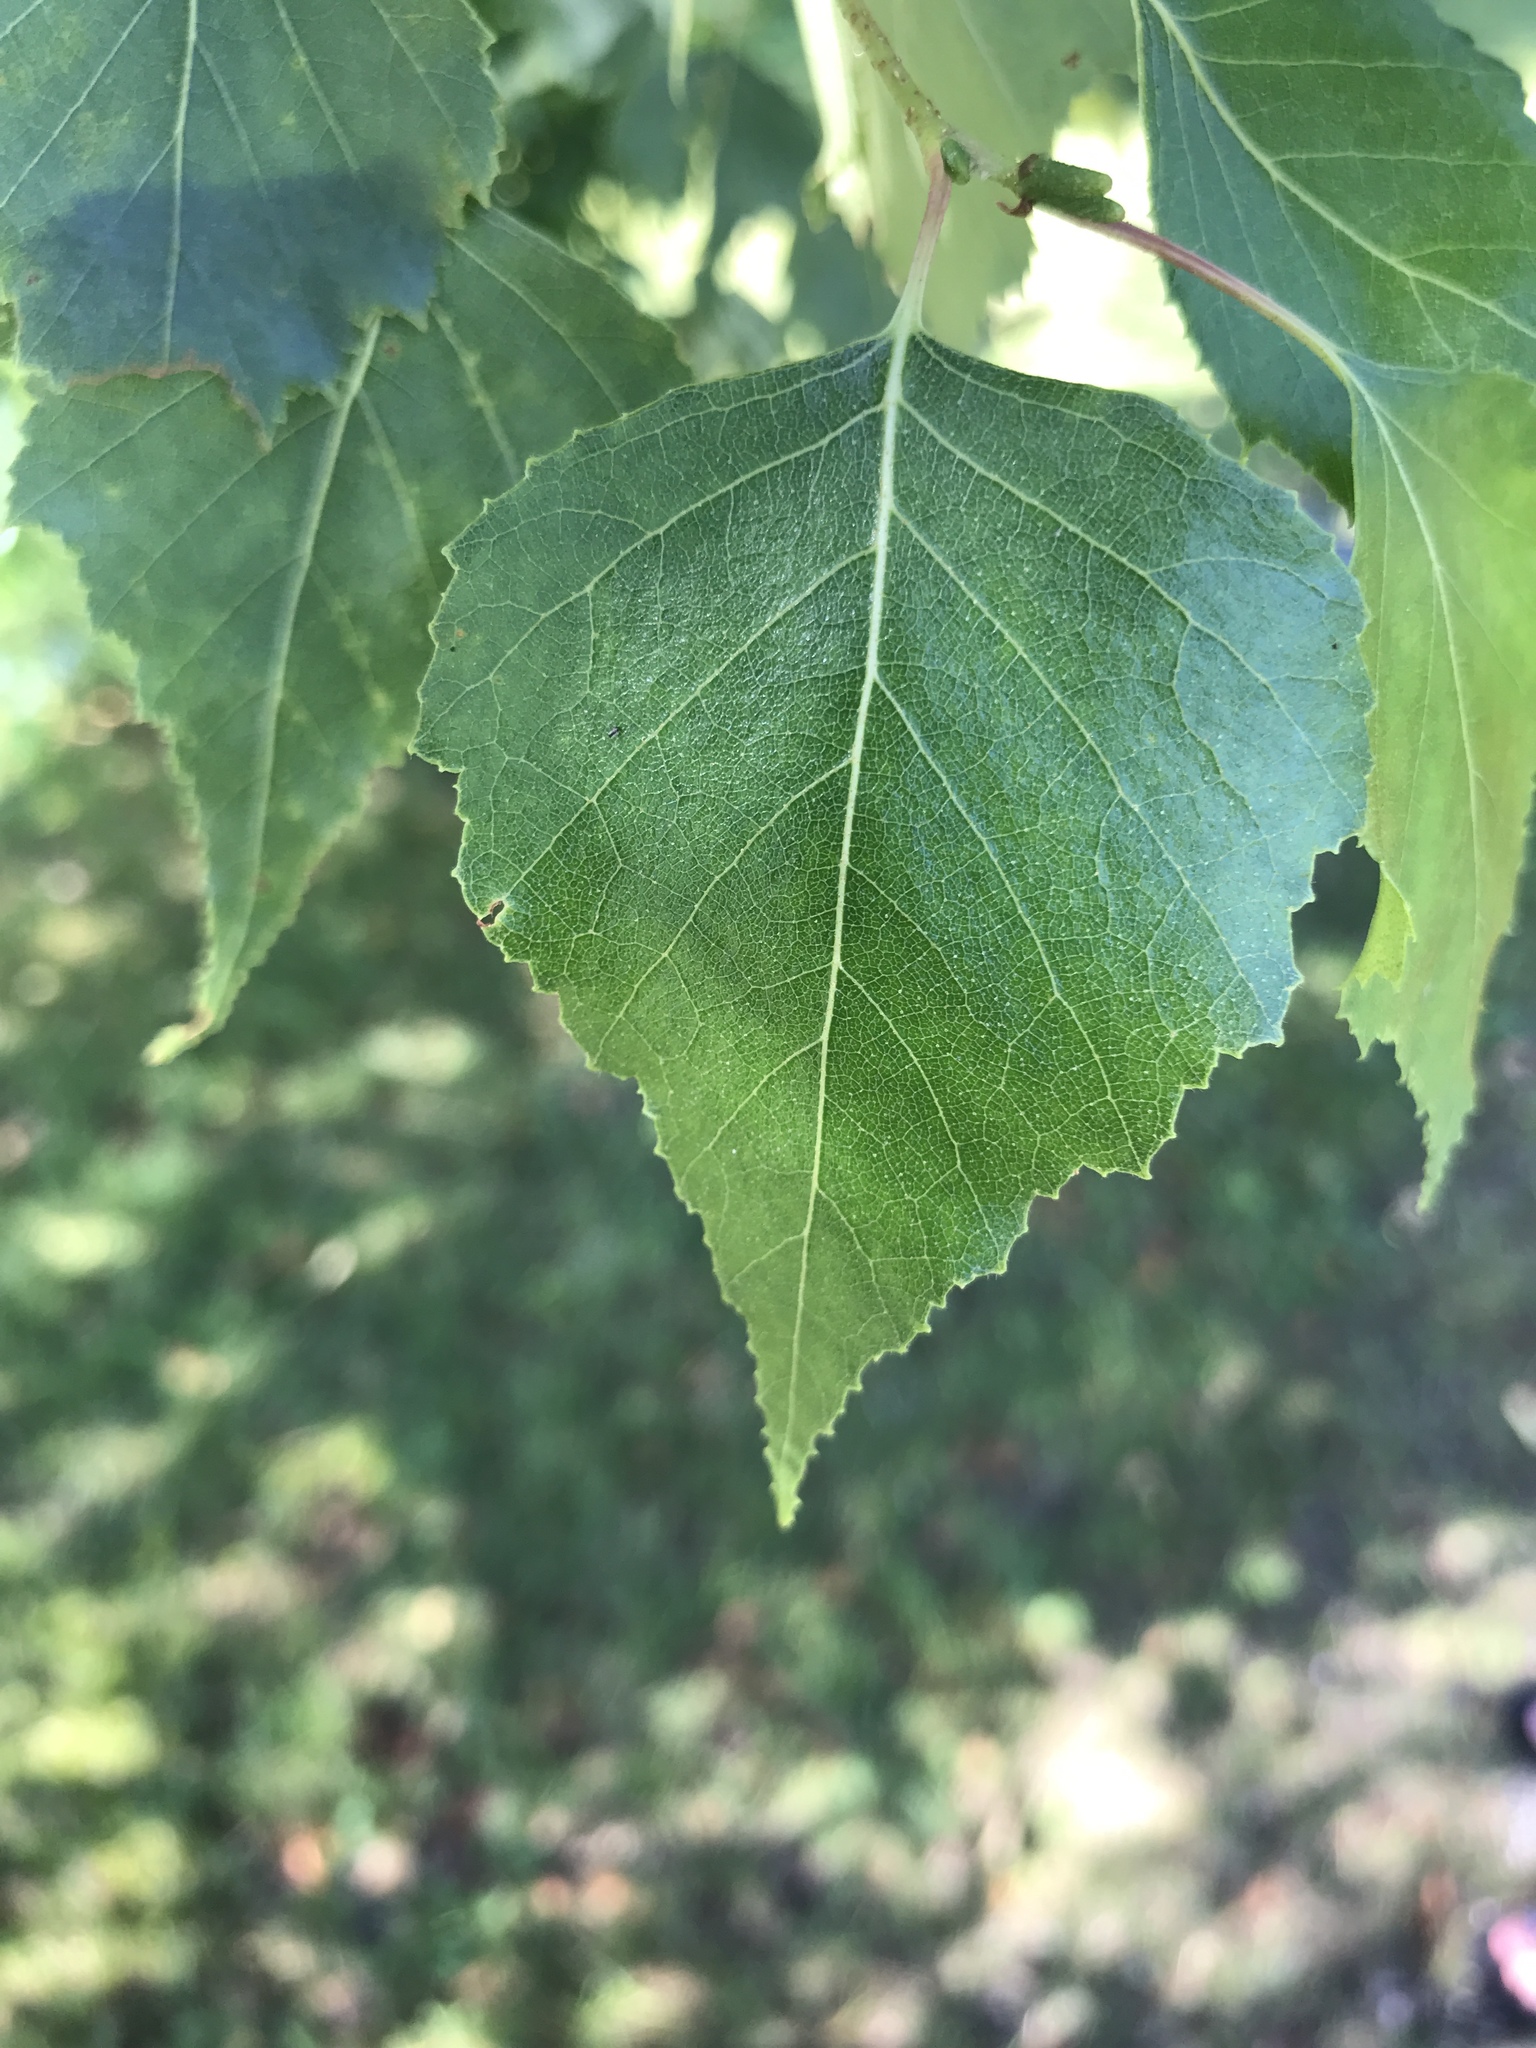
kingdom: Plantae
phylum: Tracheophyta
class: Magnoliopsida
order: Fagales
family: Betulaceae
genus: Betula
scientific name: Betula populifolia
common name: Fire birch
